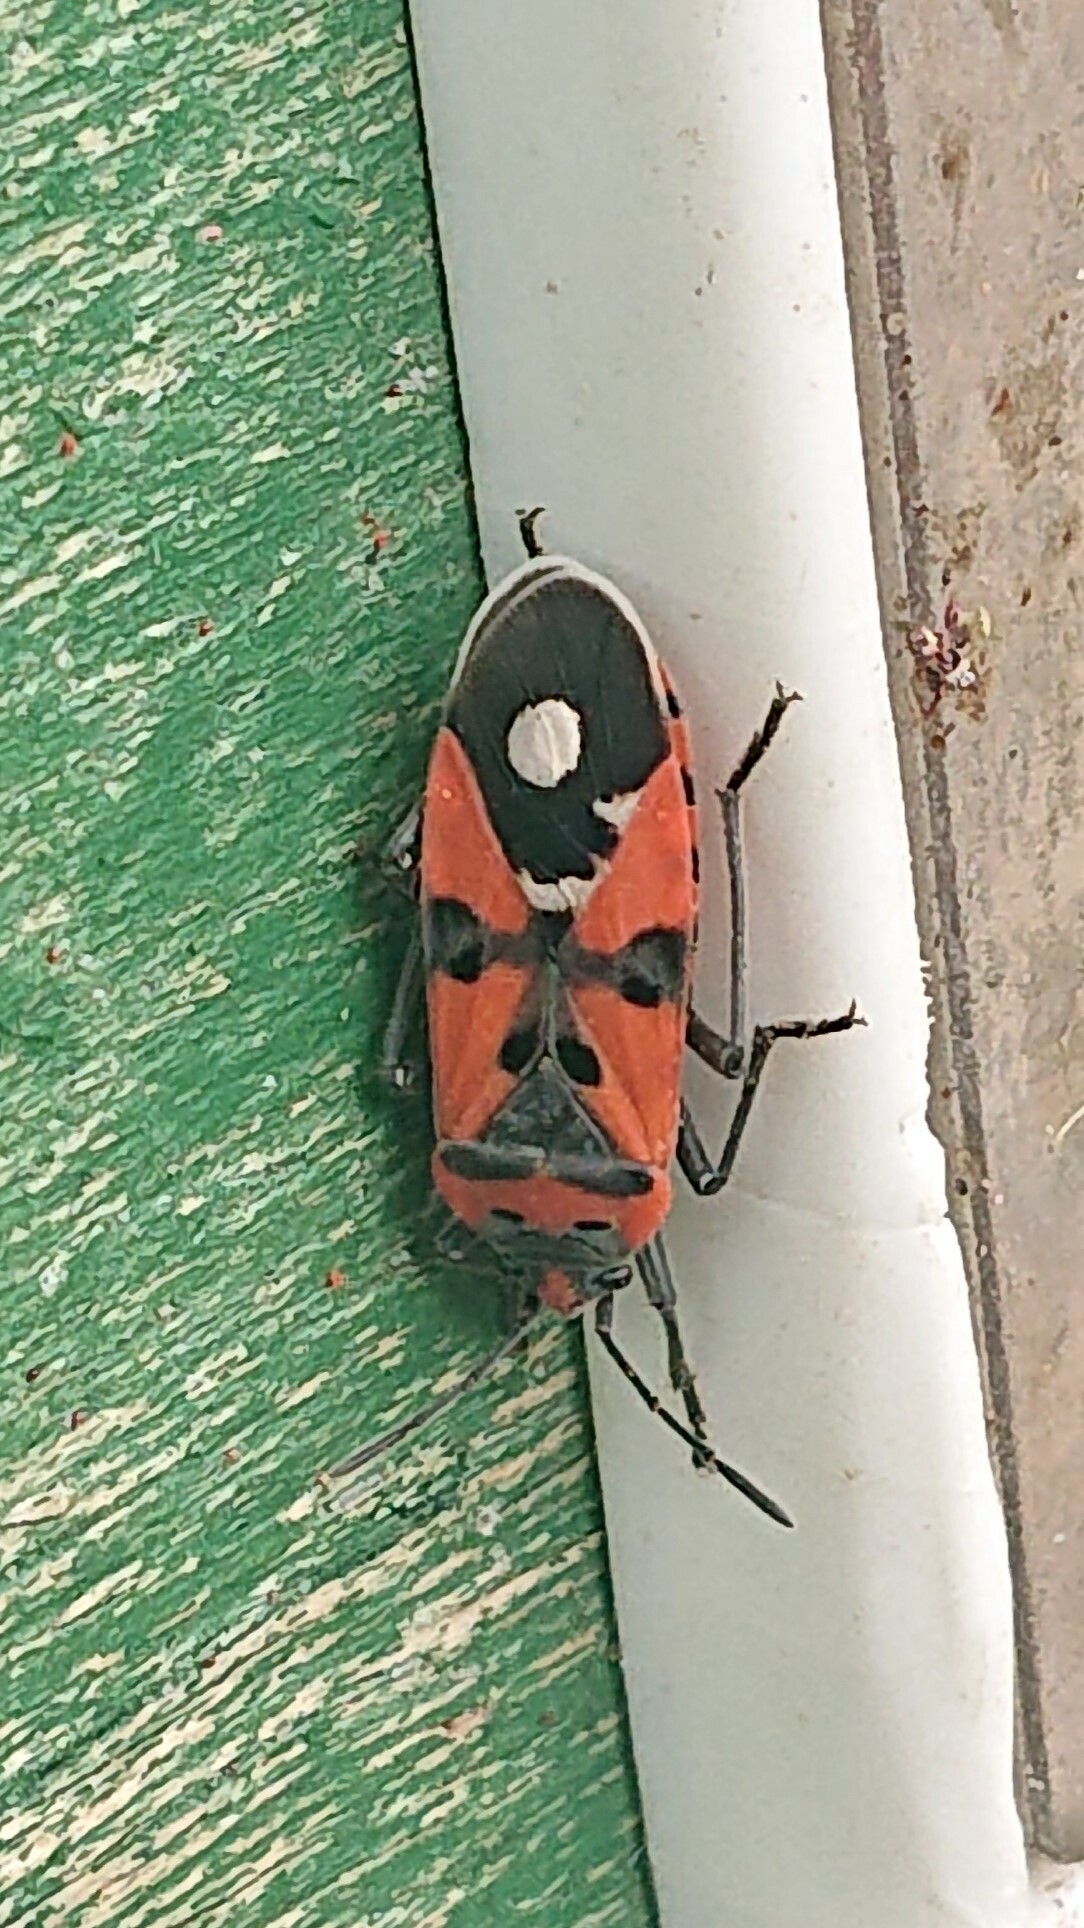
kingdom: Animalia
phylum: Arthropoda
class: Insecta
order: Hemiptera
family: Lygaeidae
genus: Lygaeus
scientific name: Lygaeus
